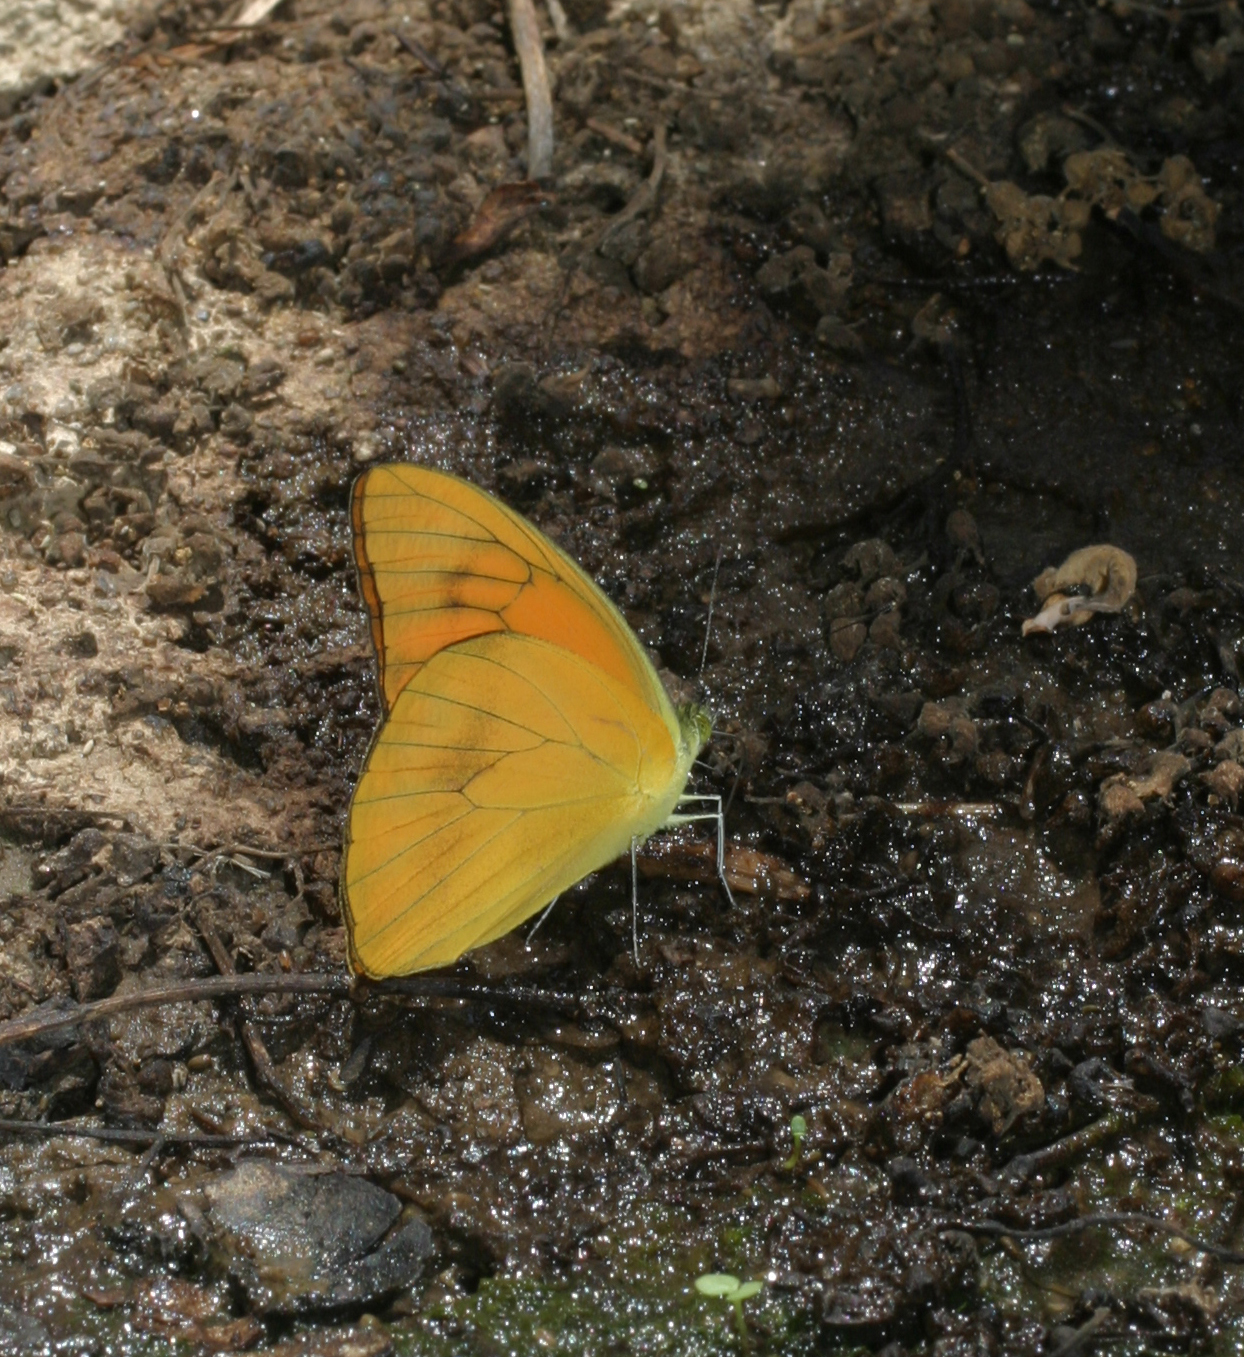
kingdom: Animalia
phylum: Arthropoda
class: Insecta
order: Lepidoptera
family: Pieridae
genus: Appias
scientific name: Appias nero
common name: Orange albatross
